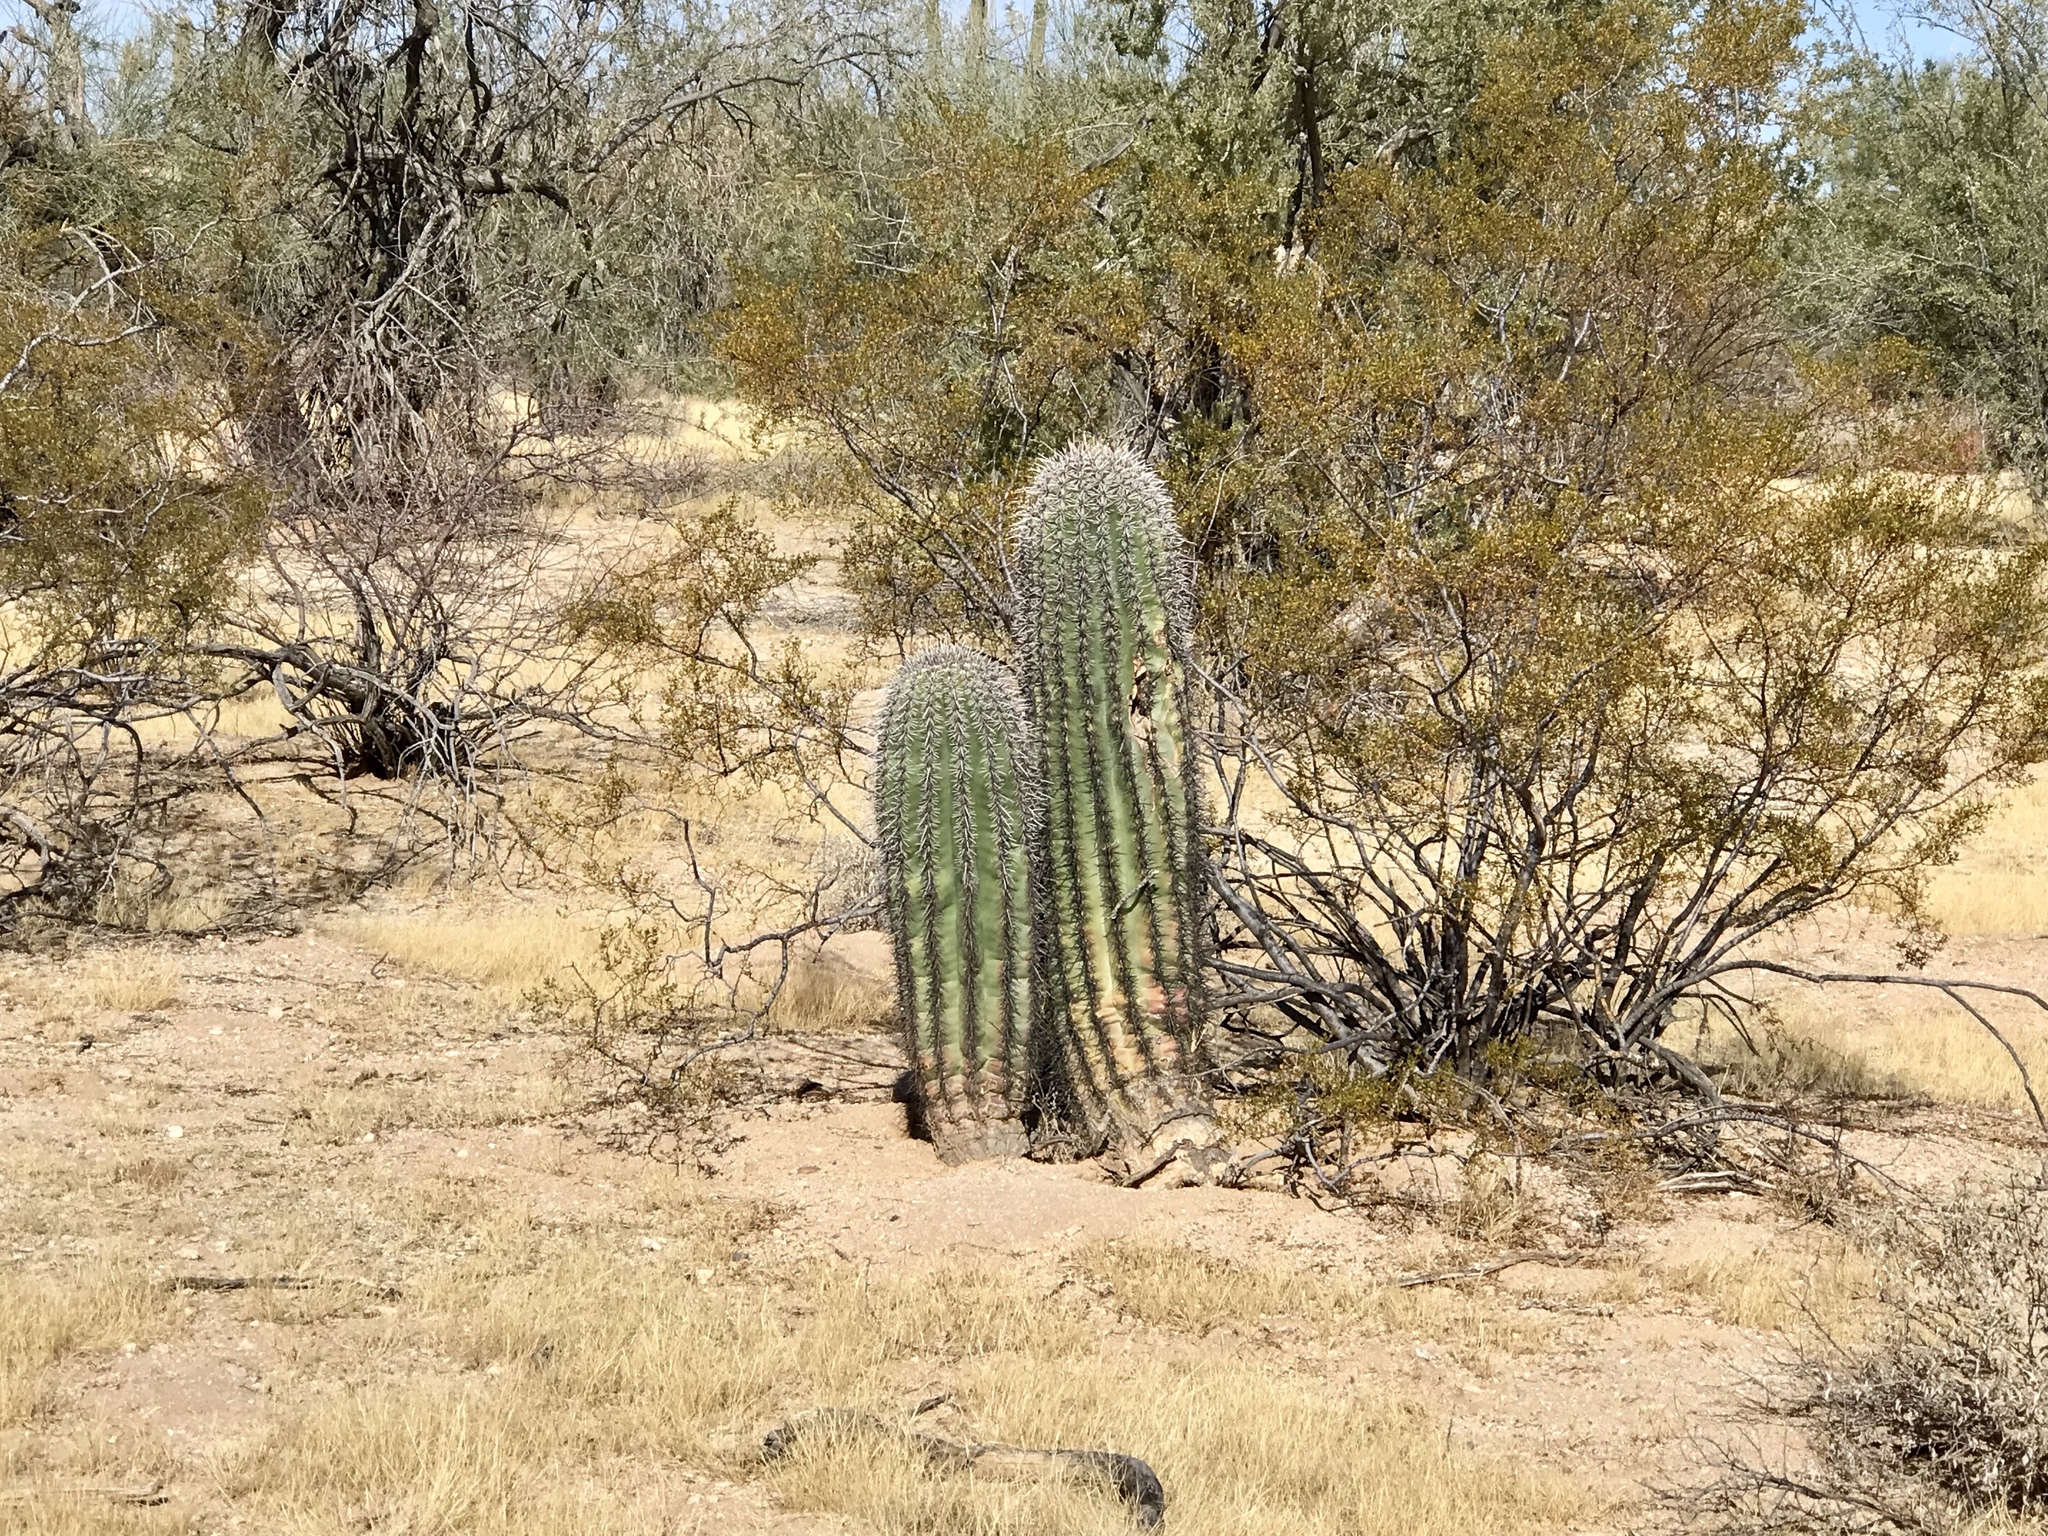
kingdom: Plantae
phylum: Tracheophyta
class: Magnoliopsida
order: Caryophyllales
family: Cactaceae
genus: Carnegiea
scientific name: Carnegiea gigantea
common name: Saguaro
